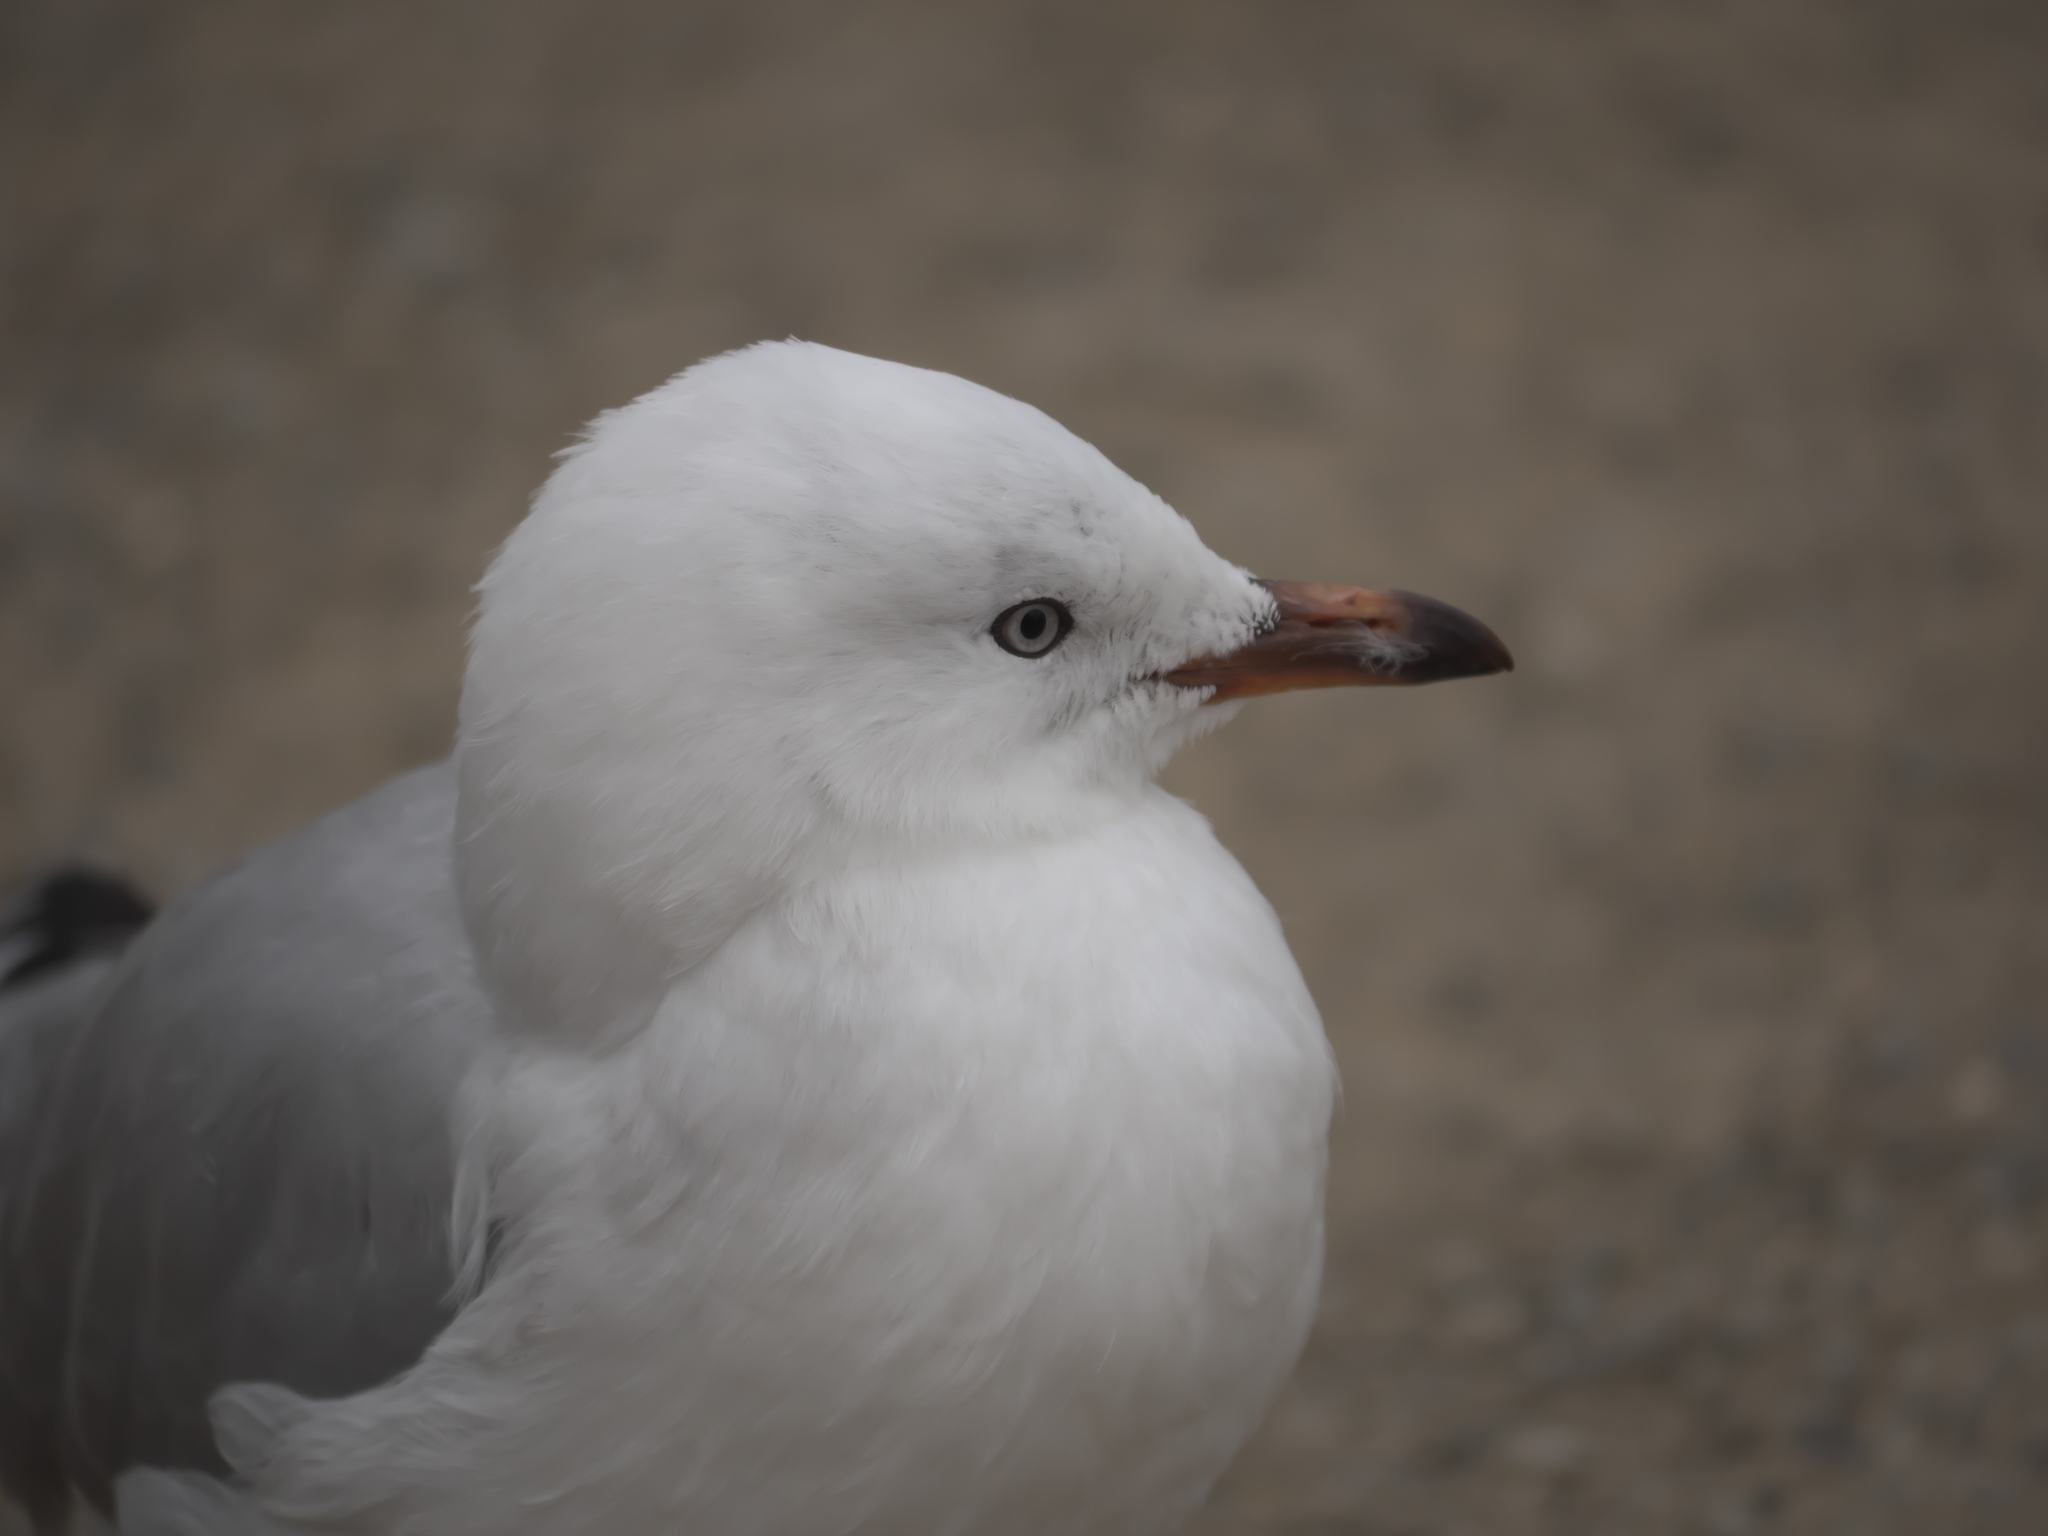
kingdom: Animalia
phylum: Chordata
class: Aves
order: Charadriiformes
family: Laridae
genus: Chroicocephalus
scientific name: Chroicocephalus novaehollandiae
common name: Silver gull
